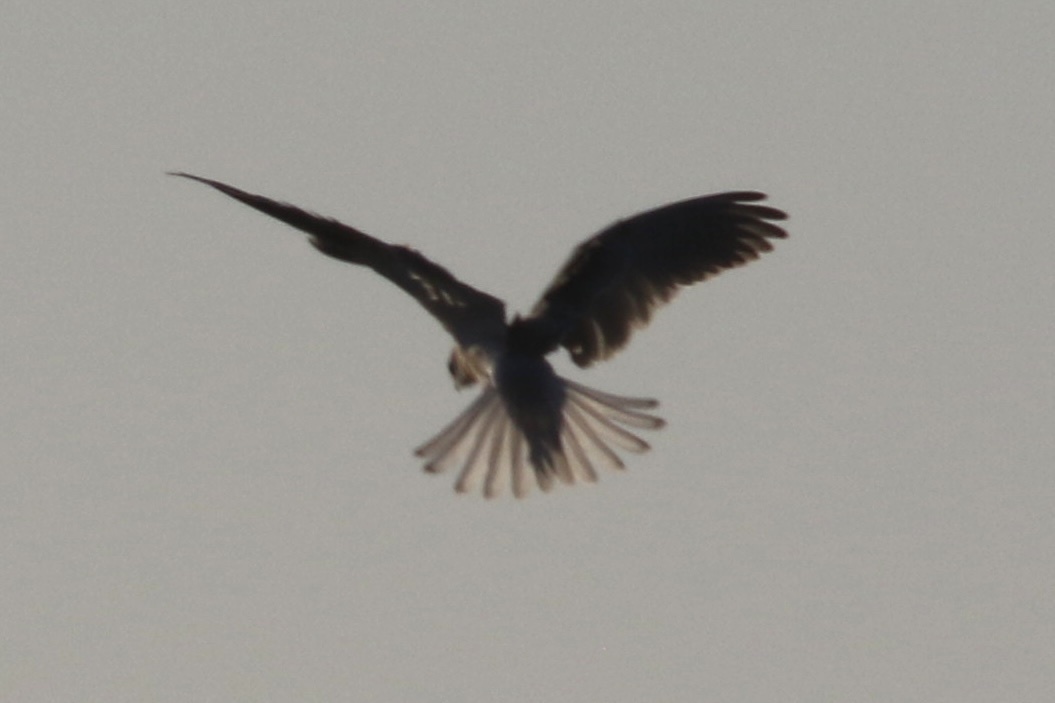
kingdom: Animalia
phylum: Chordata
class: Aves
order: Accipitriformes
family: Accipitridae
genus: Elanus
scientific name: Elanus leucurus
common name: White-tailed kite
